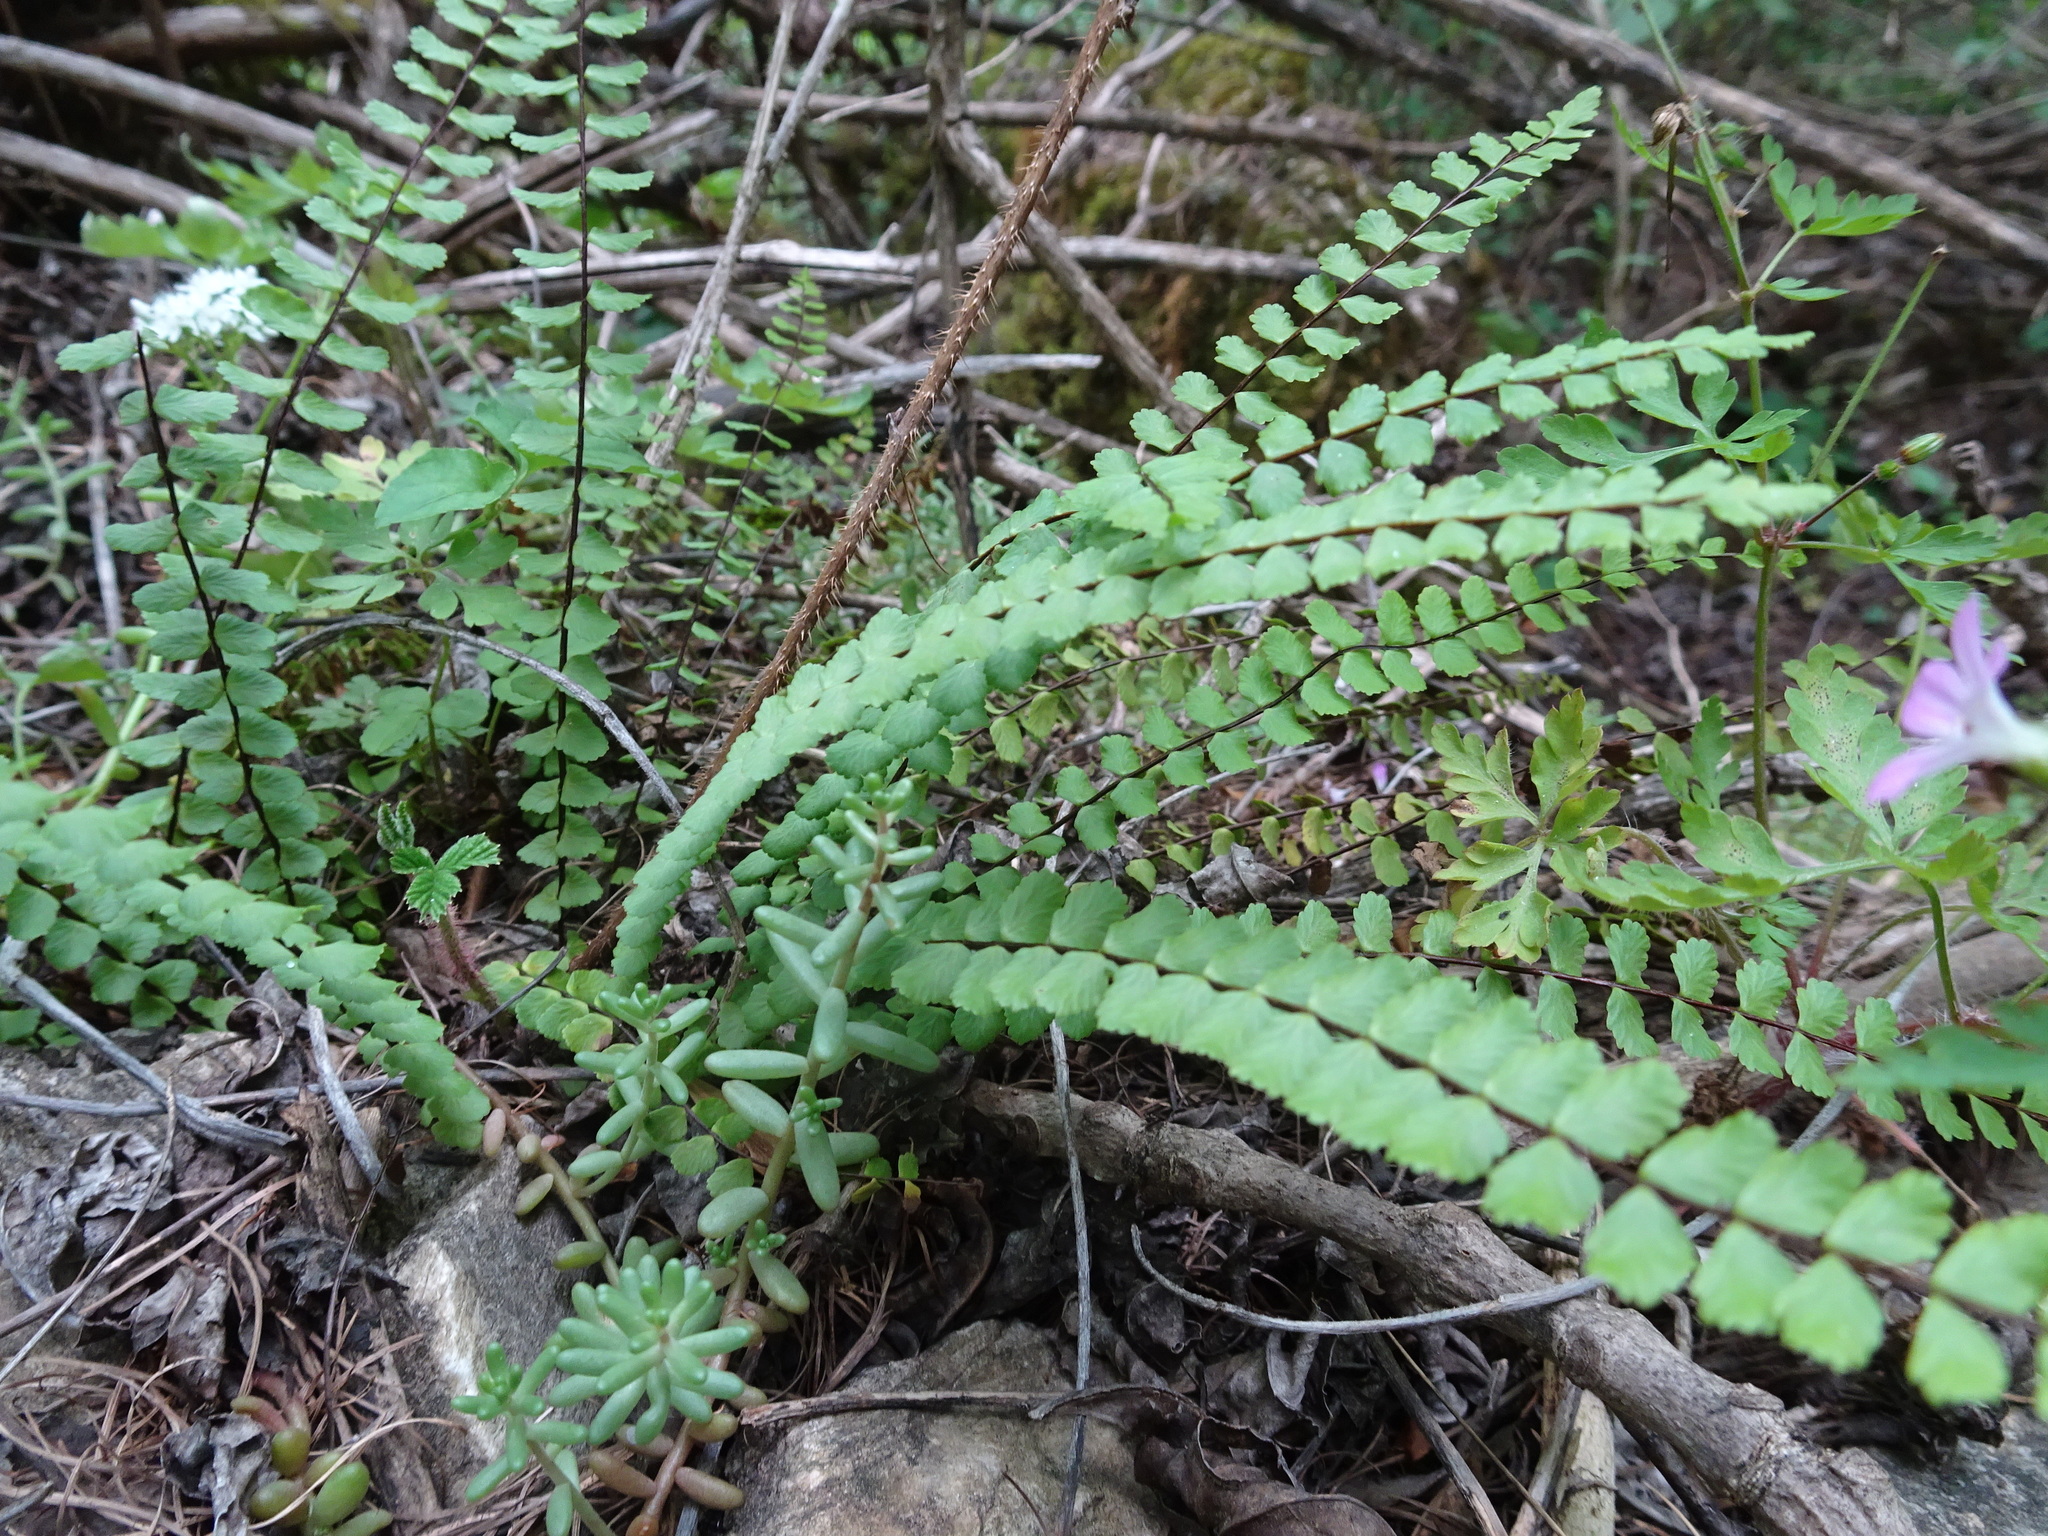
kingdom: Plantae
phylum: Tracheophyta
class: Polypodiopsida
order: Polypodiales
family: Aspleniaceae
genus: Asplenium
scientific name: Asplenium trichomanes
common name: Maidenhair spleenwort
